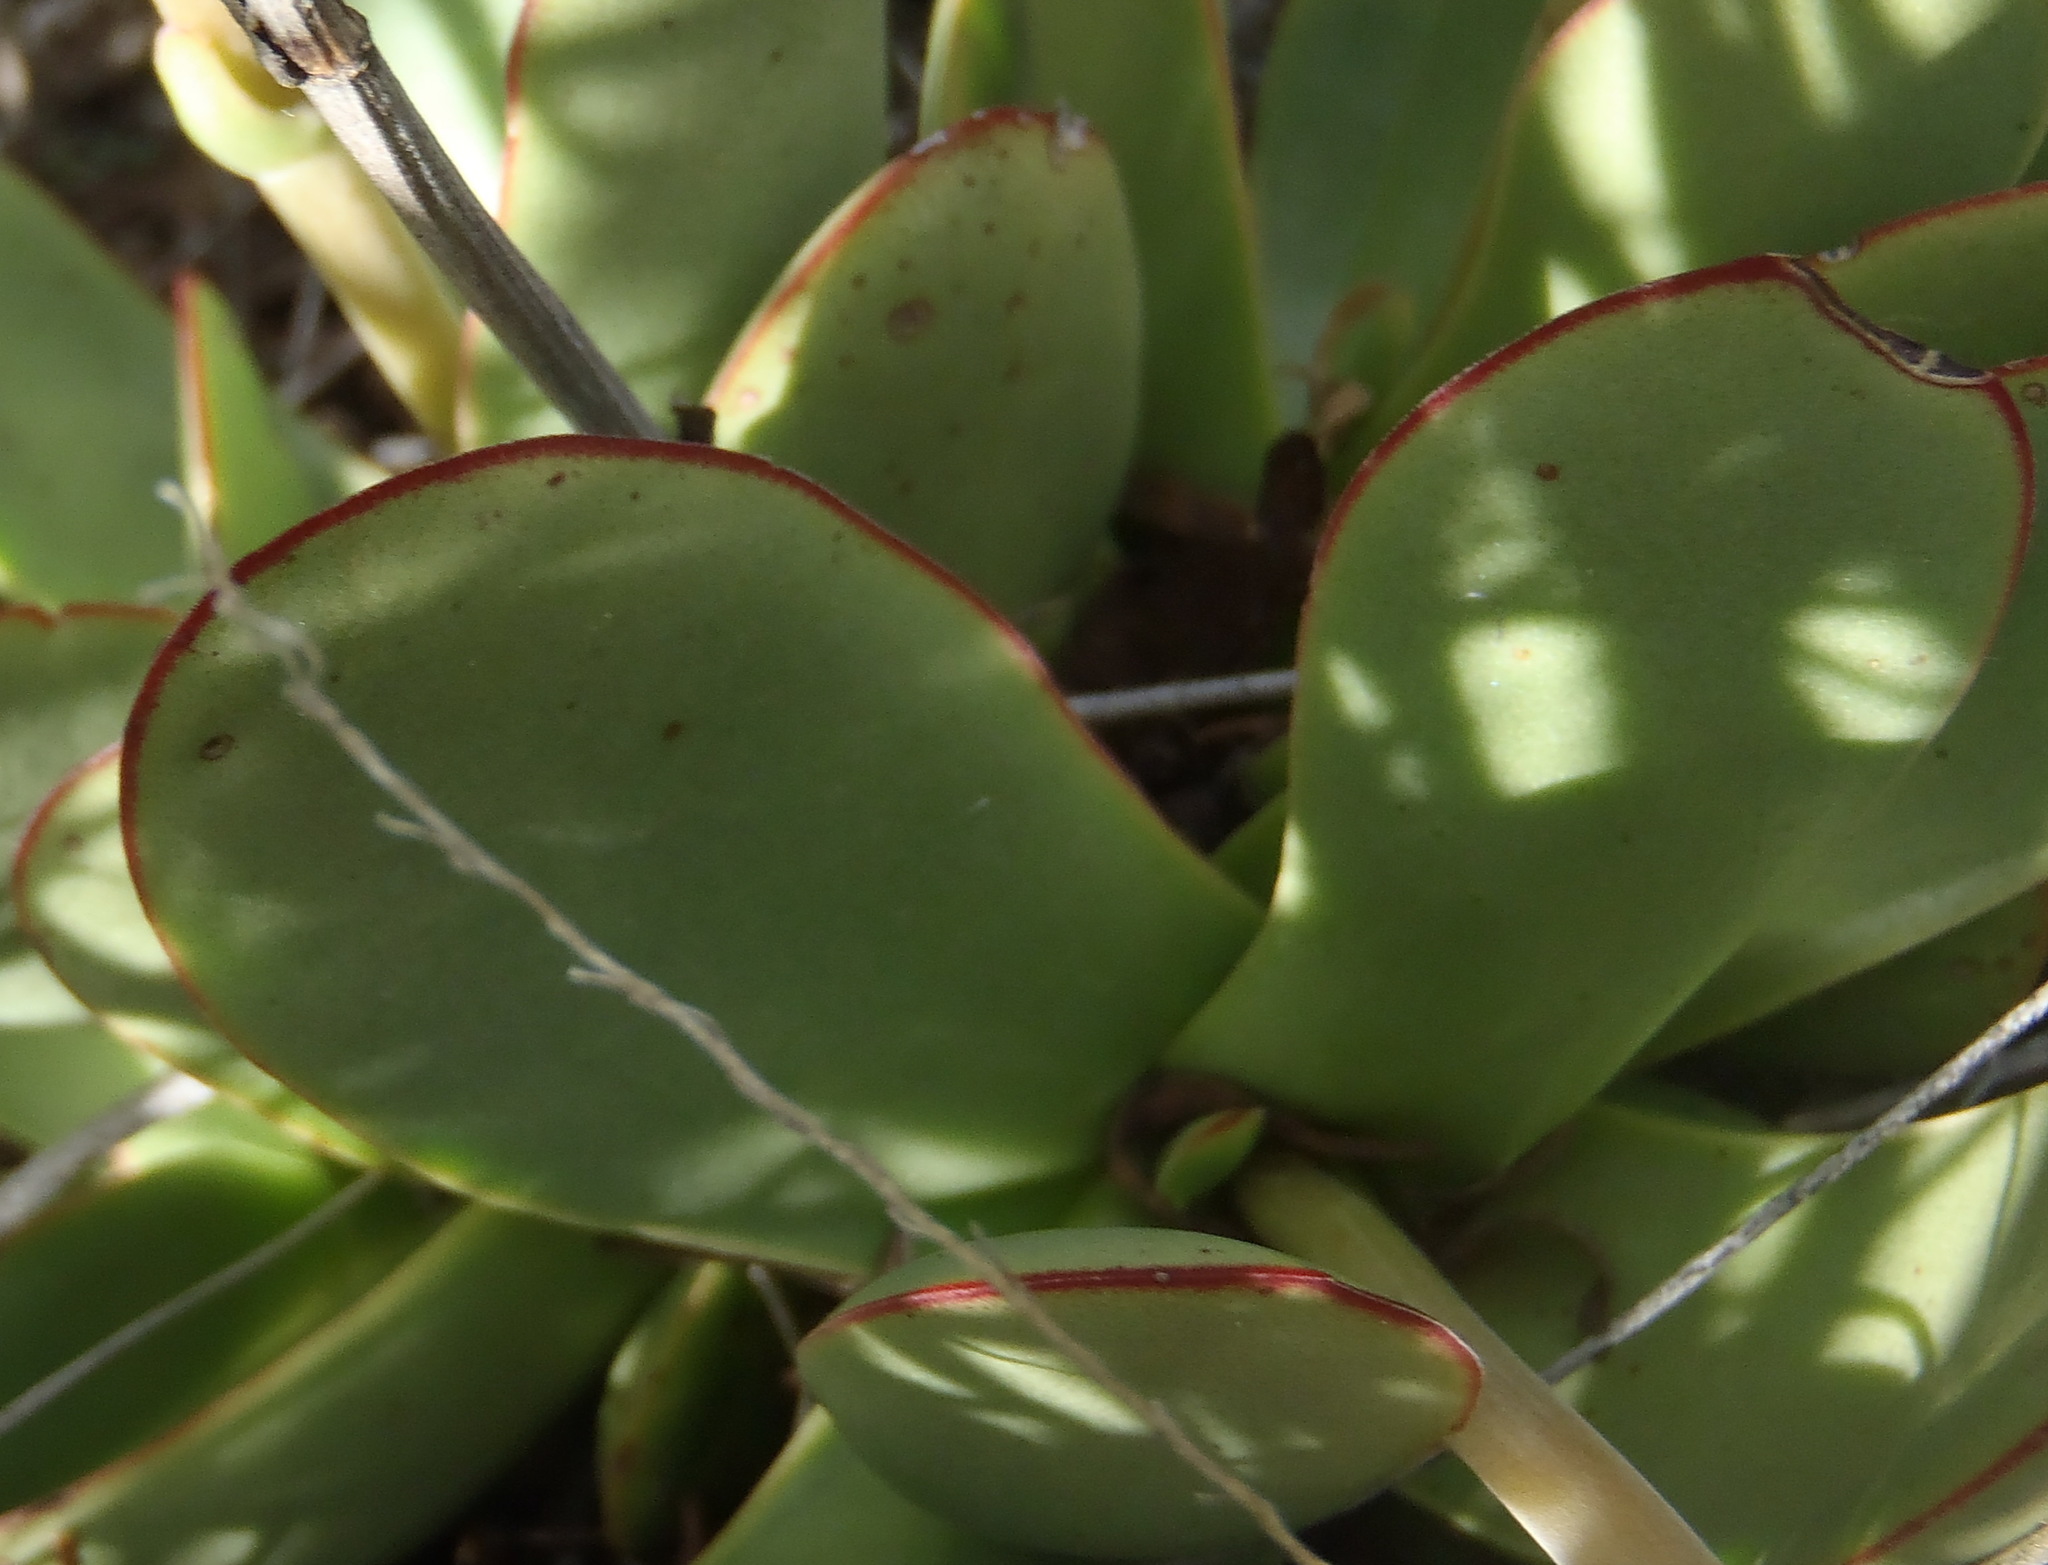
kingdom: Plantae
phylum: Tracheophyta
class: Magnoliopsida
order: Saxifragales
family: Crassulaceae
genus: Crassula
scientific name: Crassula nudicaulis
